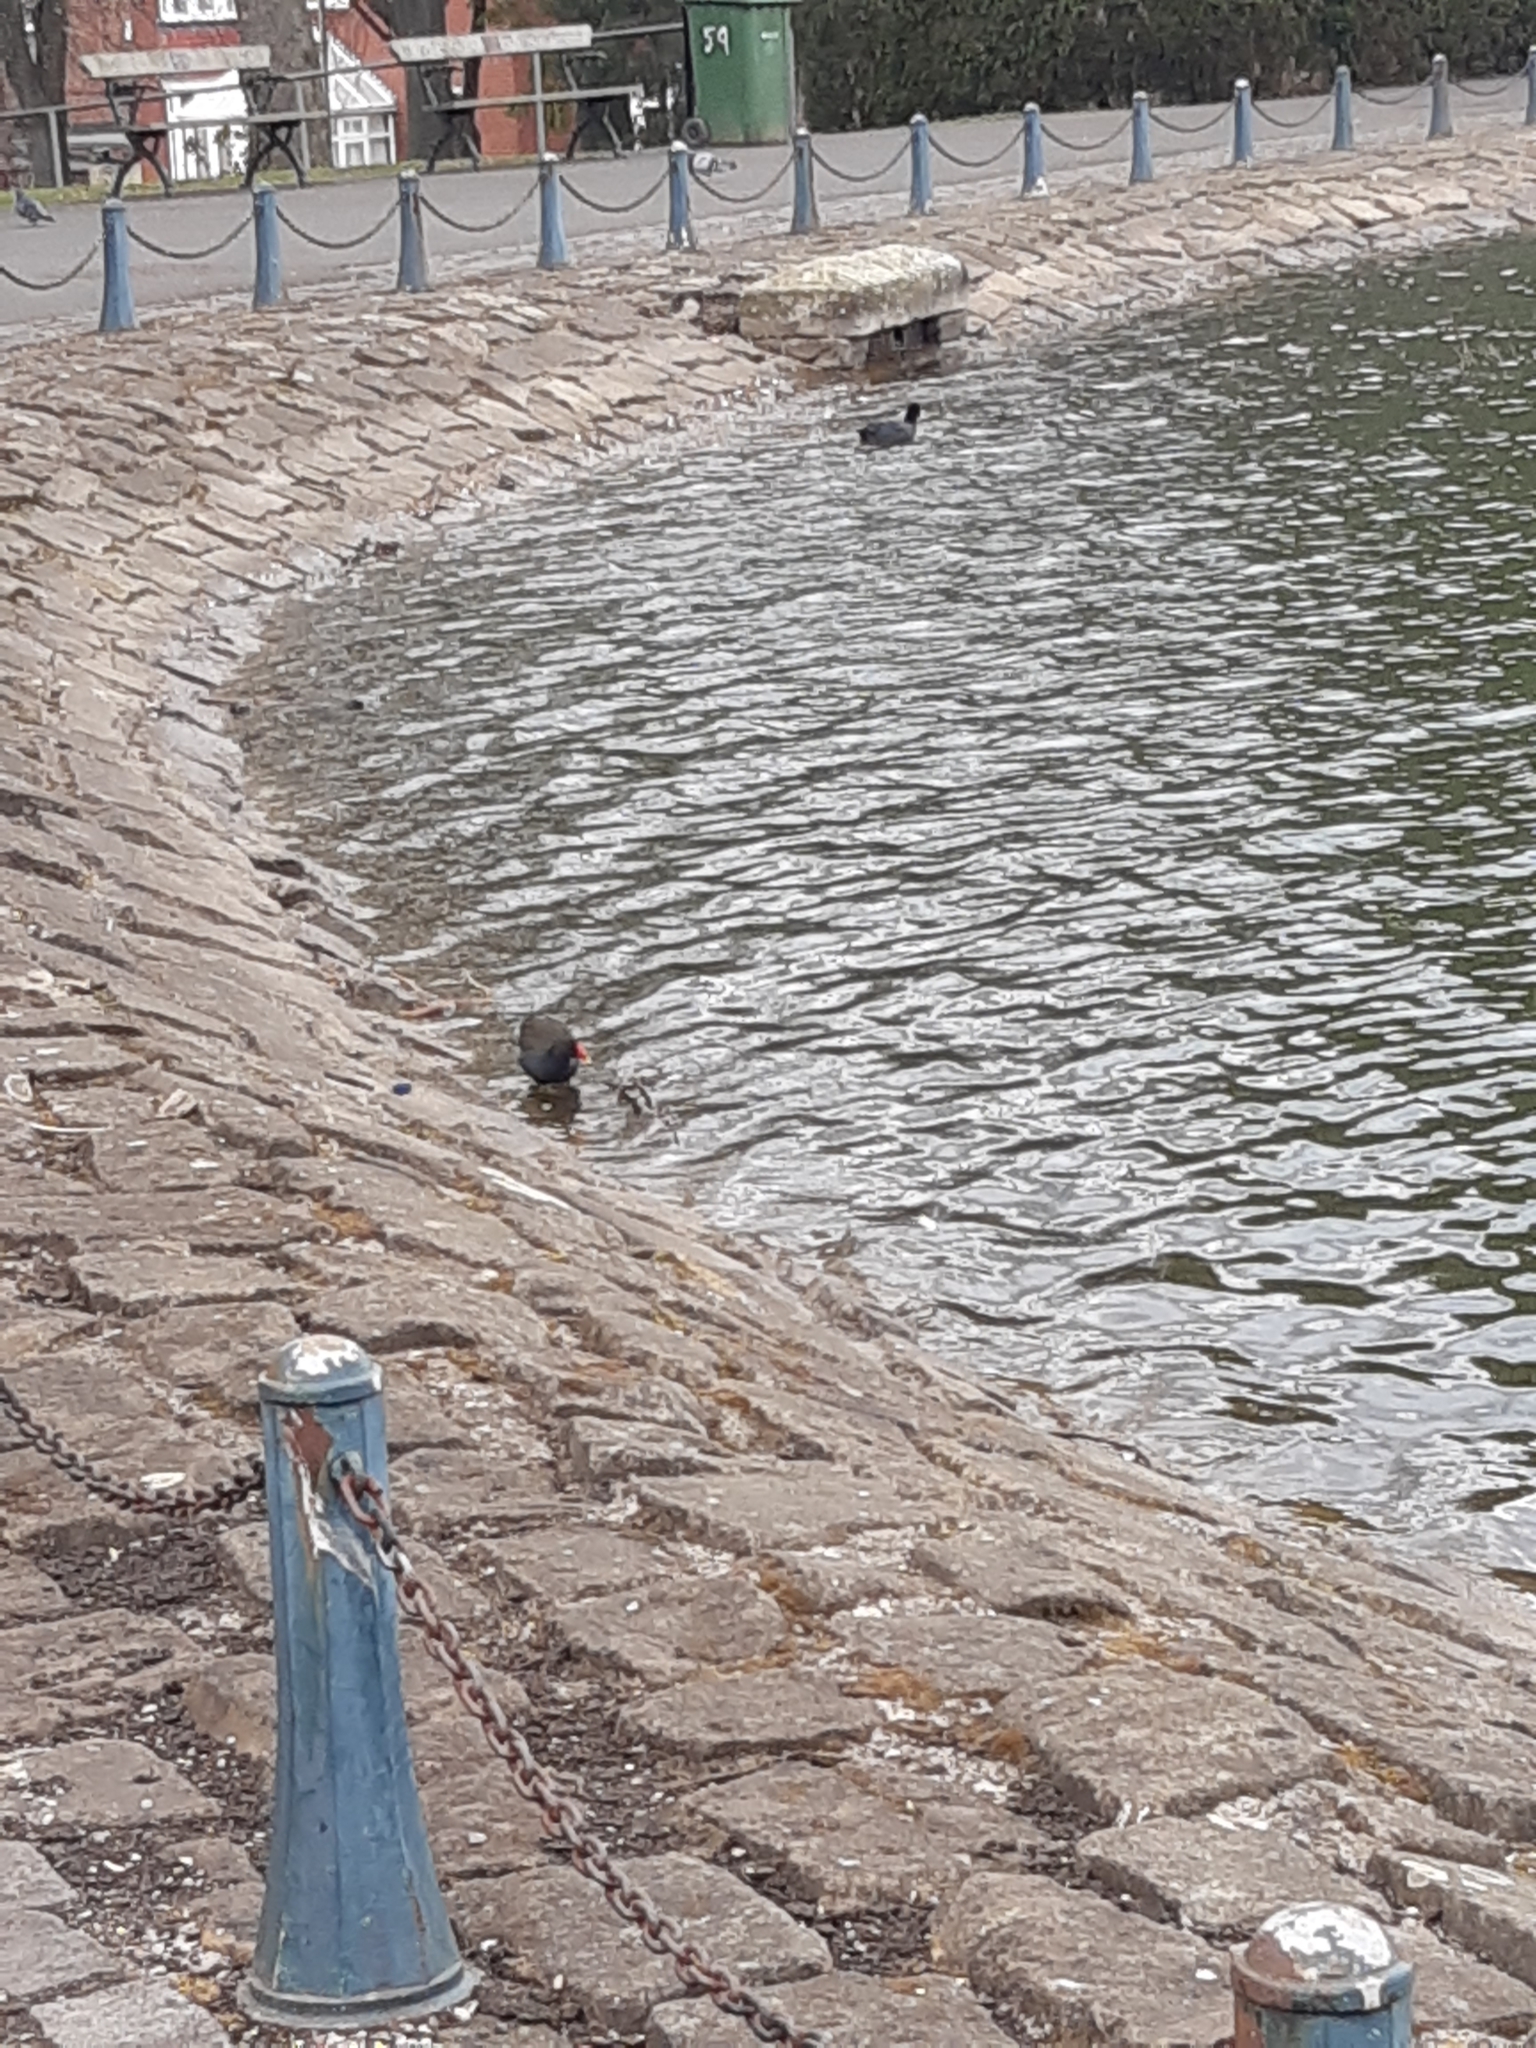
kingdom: Animalia
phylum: Chordata
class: Aves
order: Gruiformes
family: Rallidae
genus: Gallinula
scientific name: Gallinula chloropus
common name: Common moorhen
